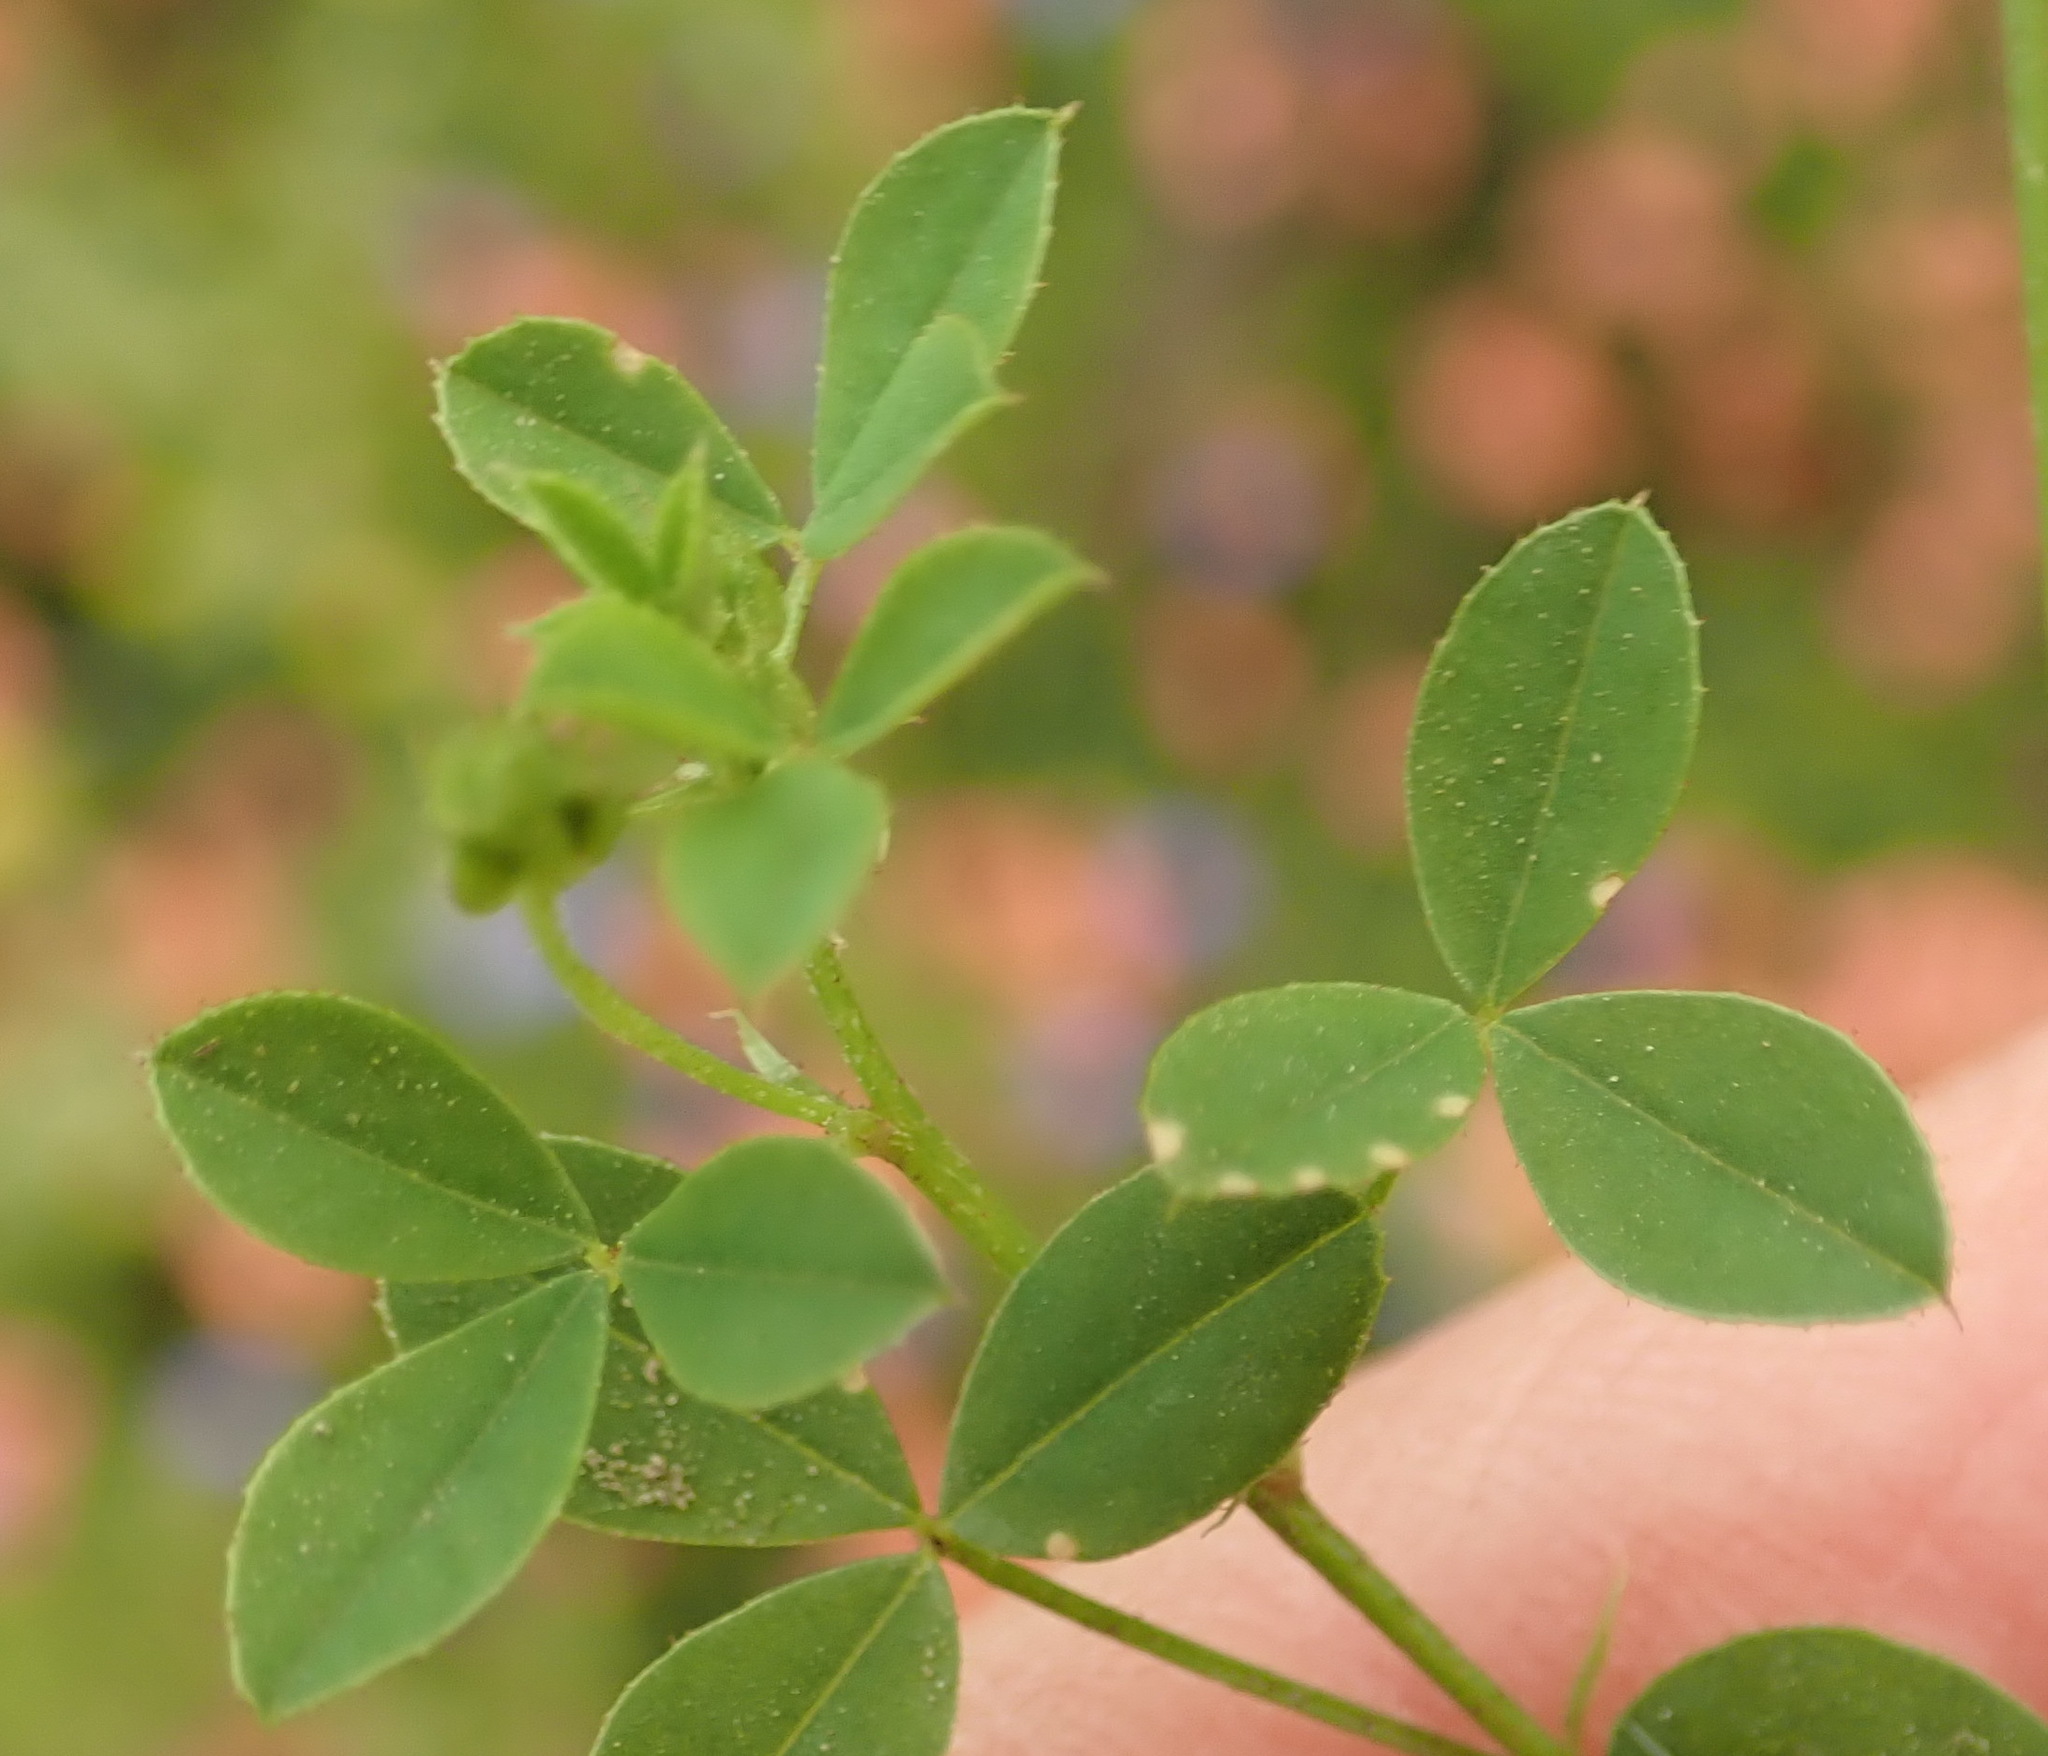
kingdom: Plantae
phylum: Tracheophyta
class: Magnoliopsida
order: Fabales
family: Fabaceae
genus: Indigofera
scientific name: Indigofera erecta
